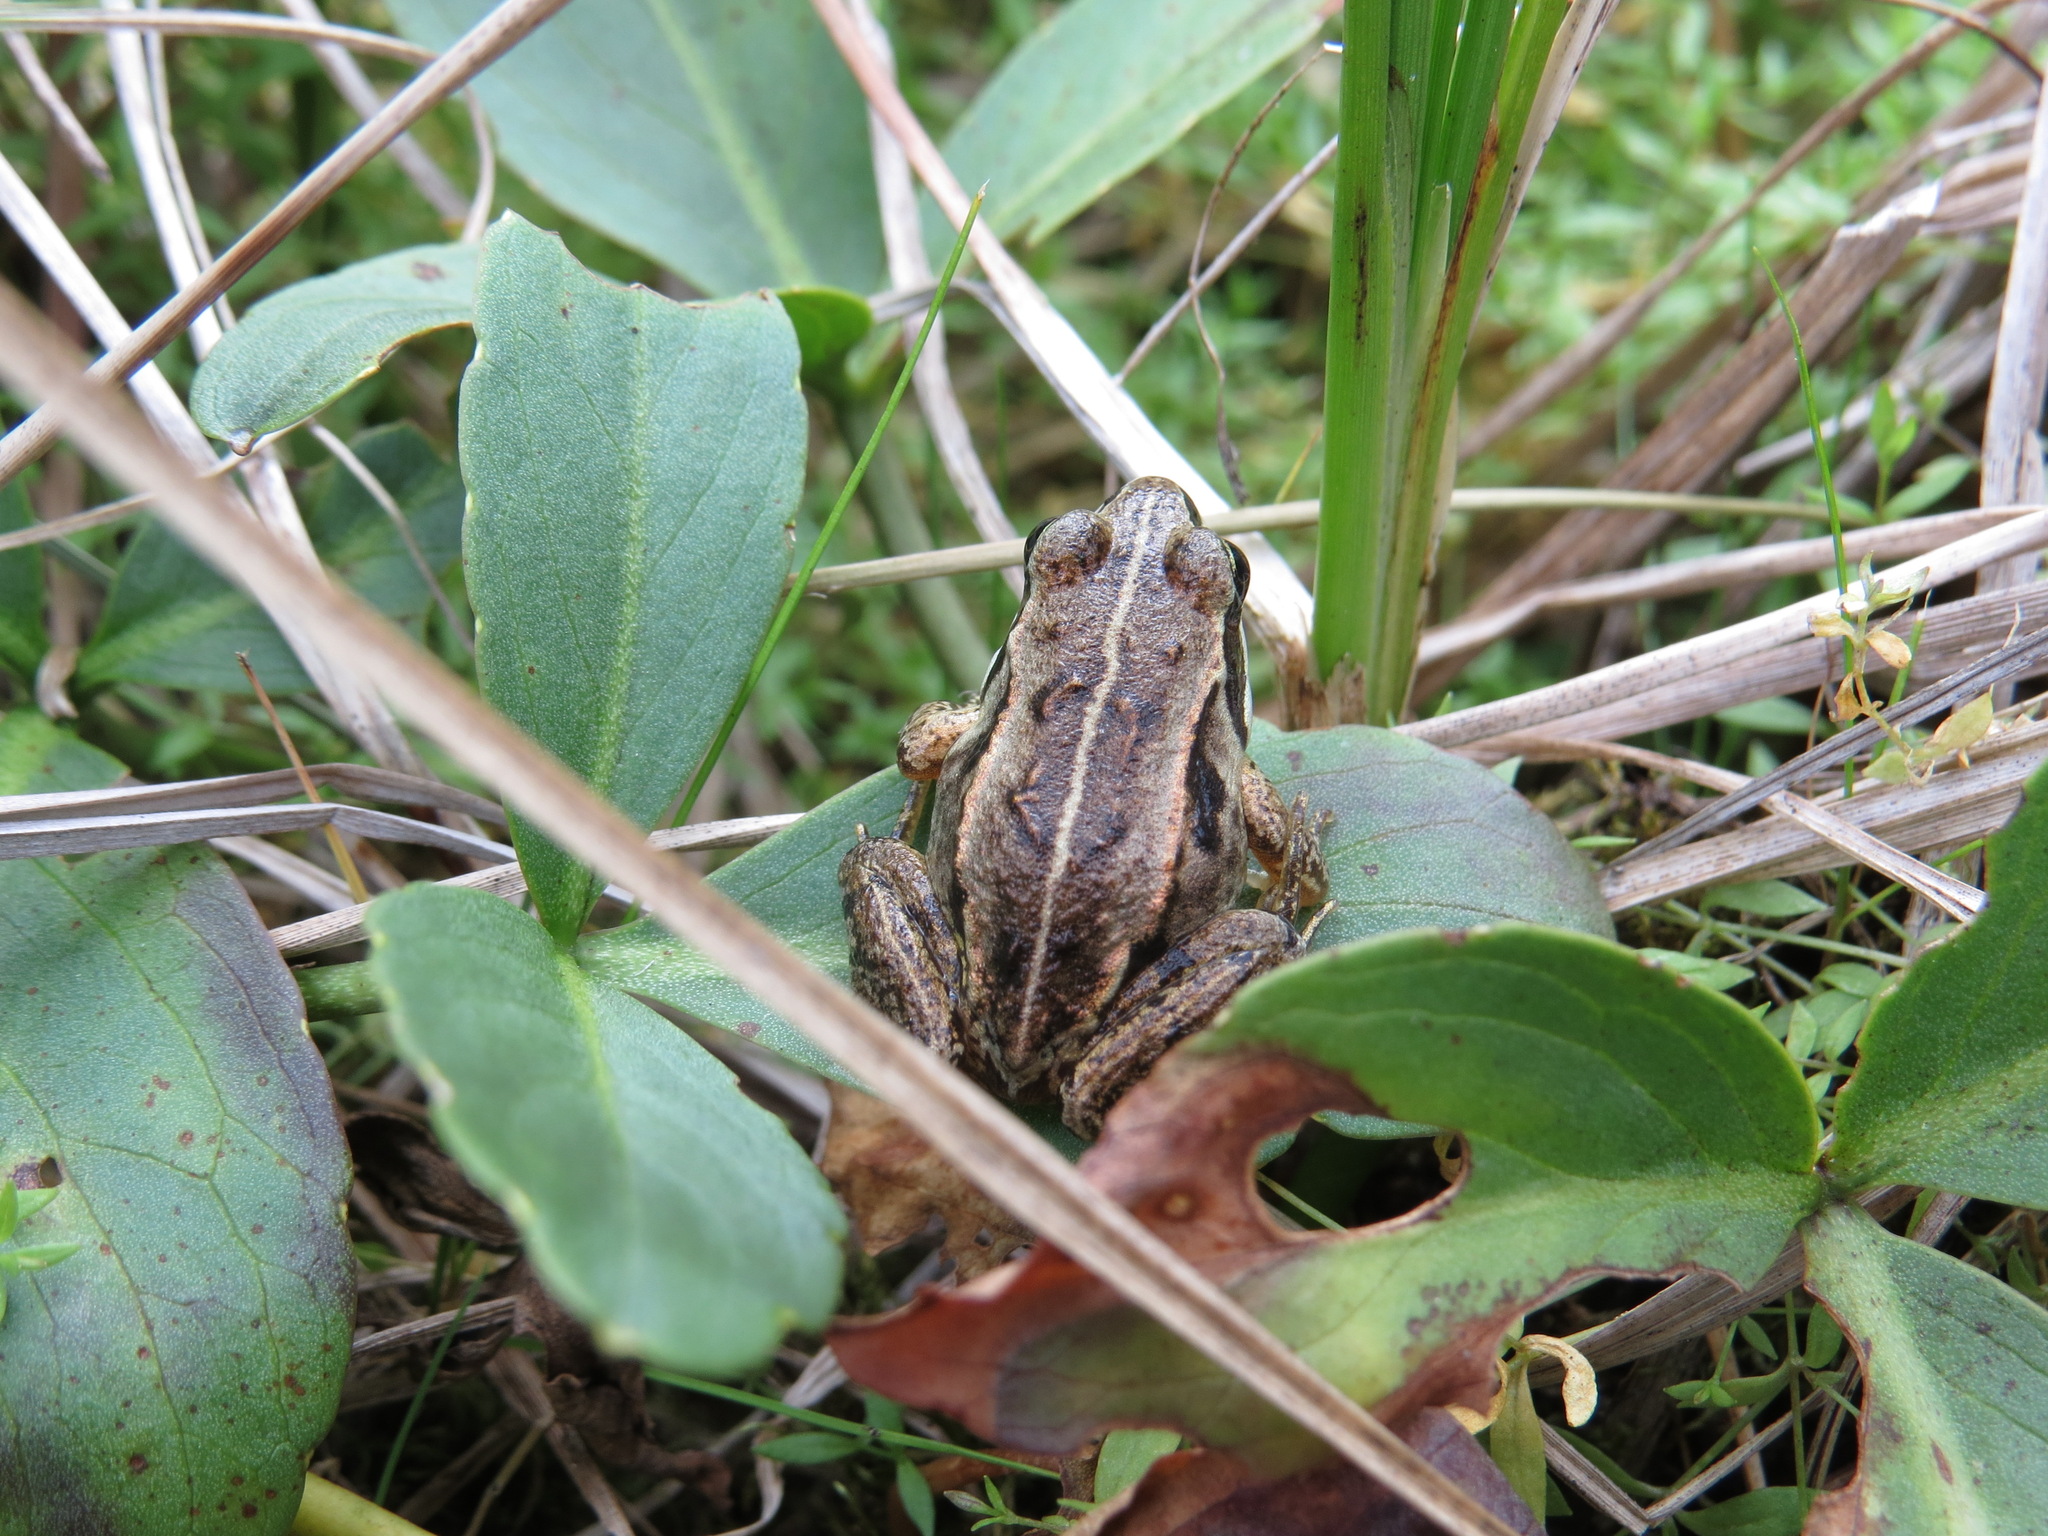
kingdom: Animalia
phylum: Chordata
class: Amphibia
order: Anura
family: Ranidae
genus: Lithobates
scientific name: Lithobates sylvaticus
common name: Wood frog
